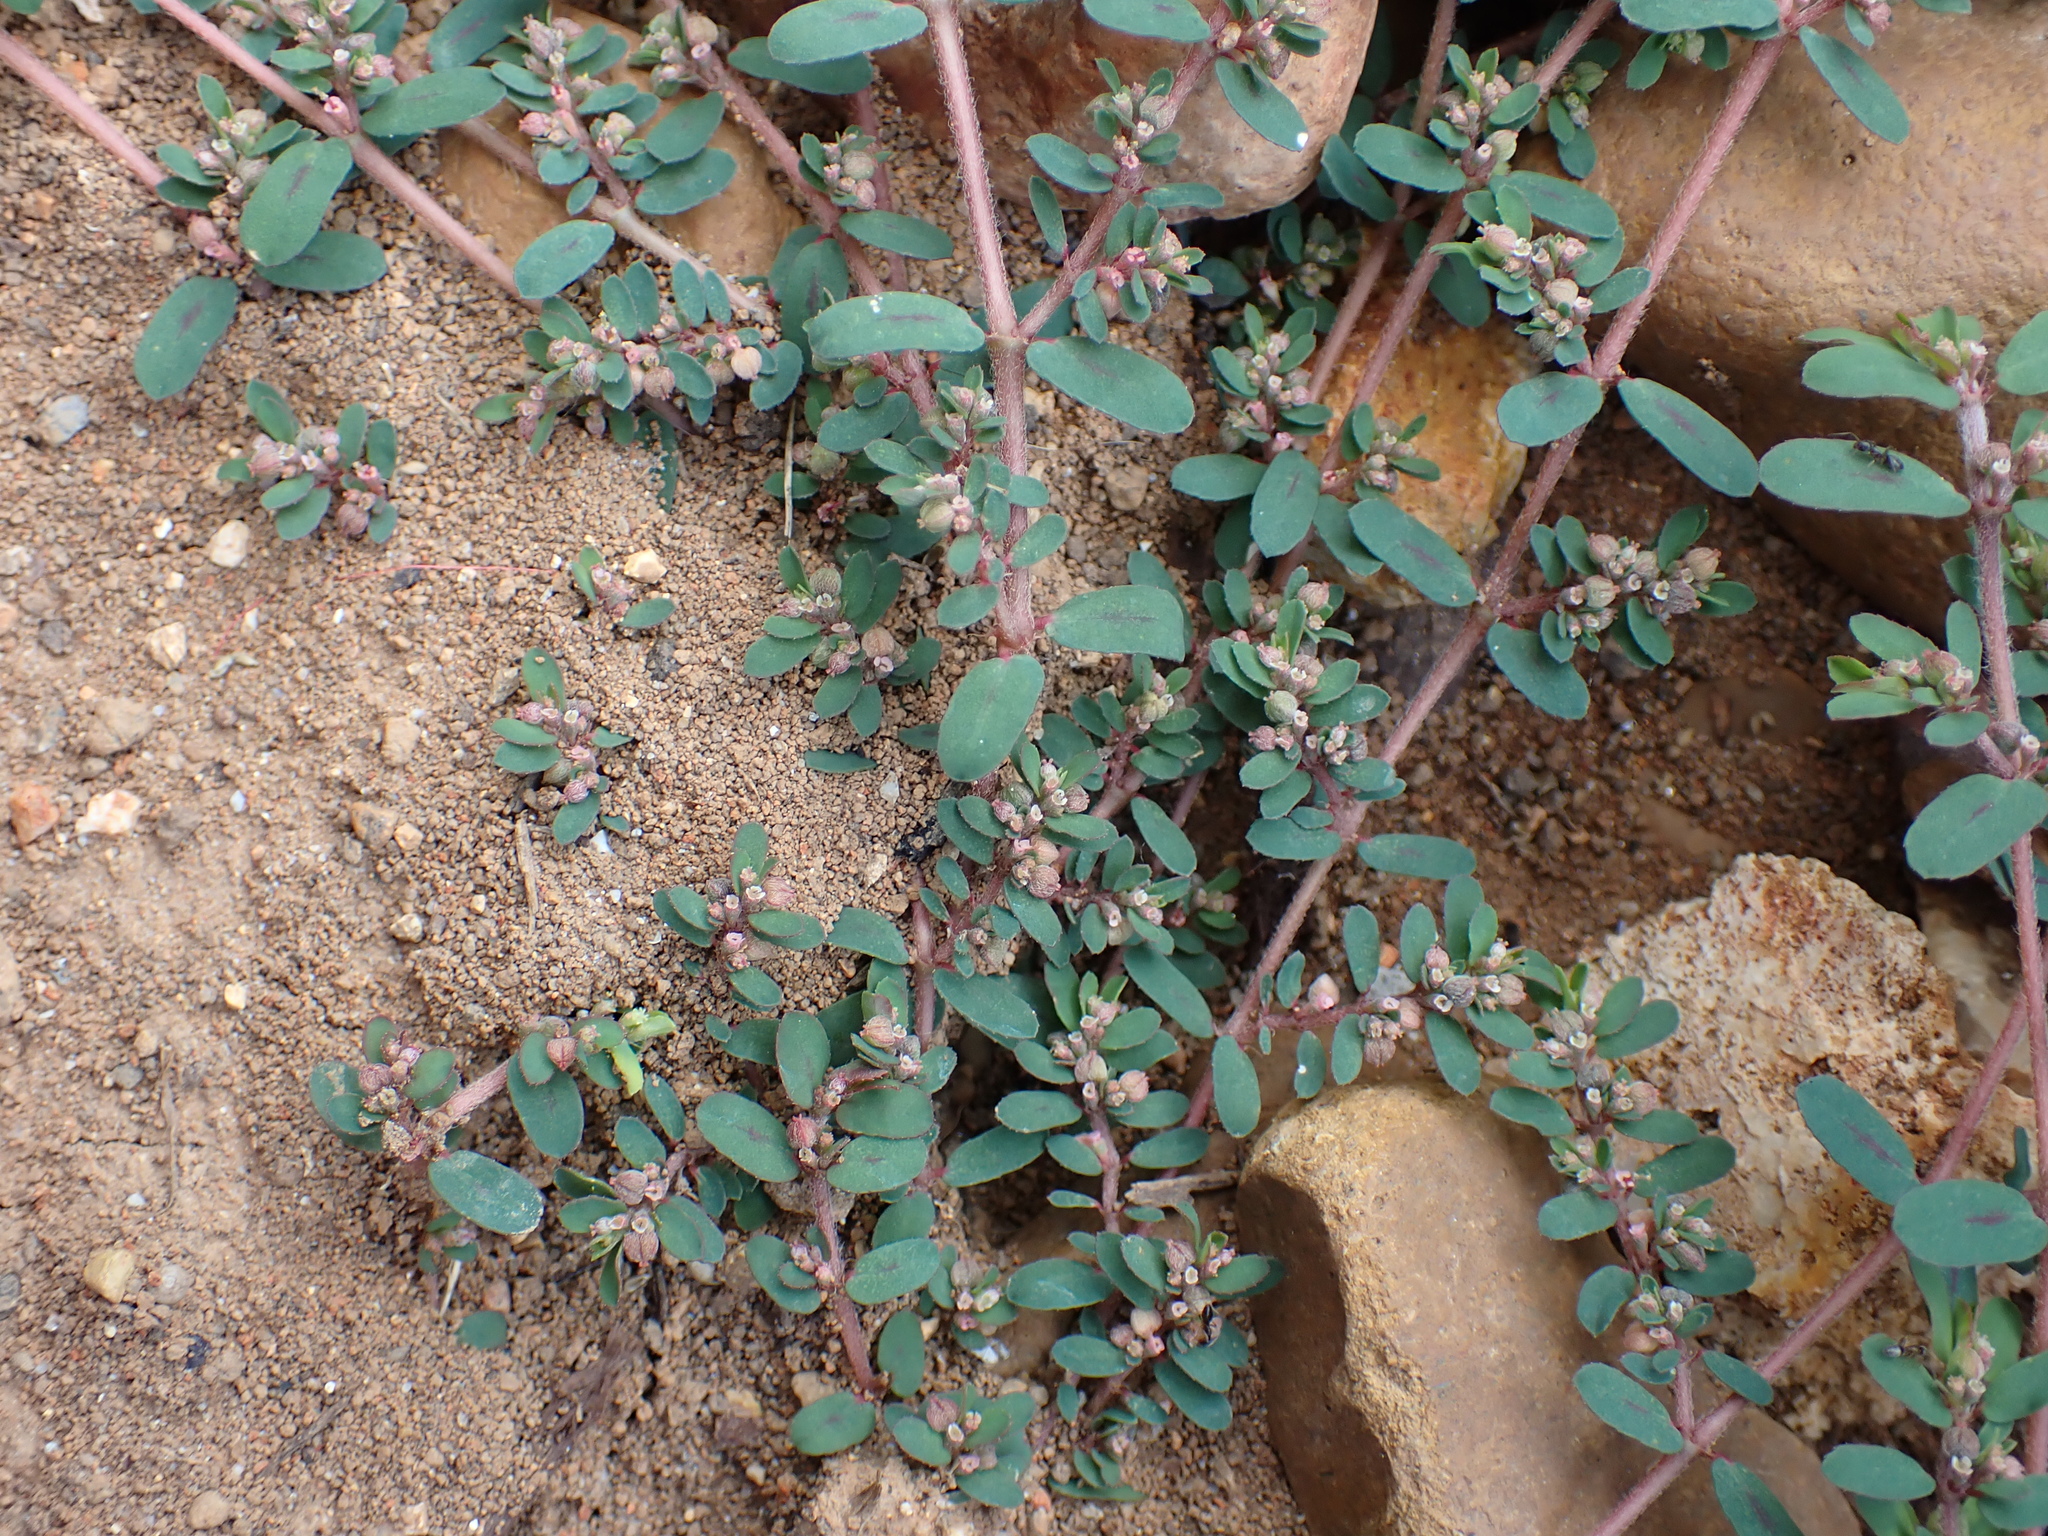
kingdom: Plantae
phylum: Tracheophyta
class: Magnoliopsida
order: Malpighiales
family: Euphorbiaceae
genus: Euphorbia
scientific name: Euphorbia maculata
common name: Spotted spurge
